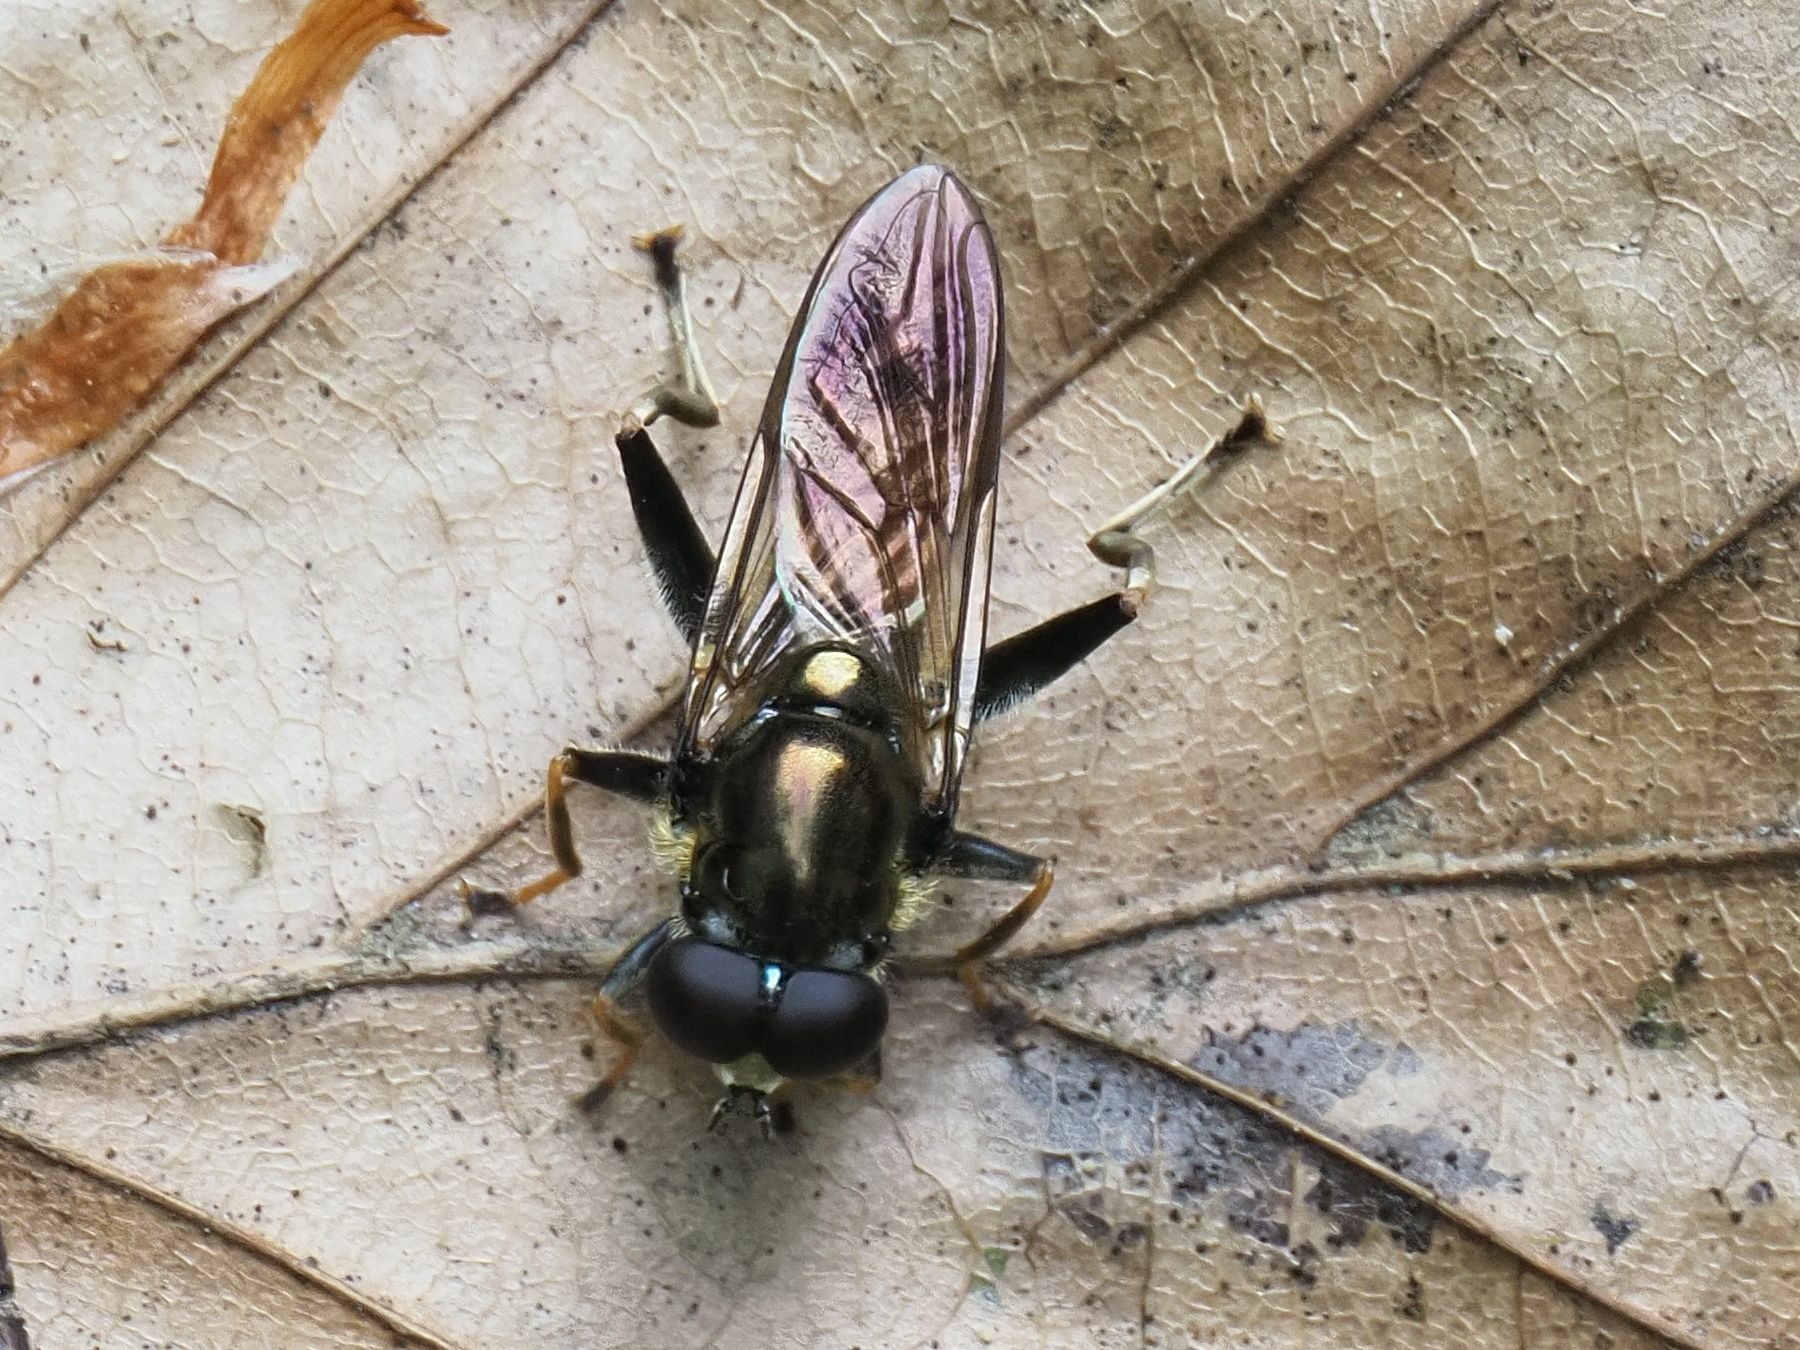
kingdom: Animalia
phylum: Arthropoda
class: Insecta
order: Diptera
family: Syrphidae
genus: Xylota
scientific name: Xylota segnis
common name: Brown-toed forest fly
